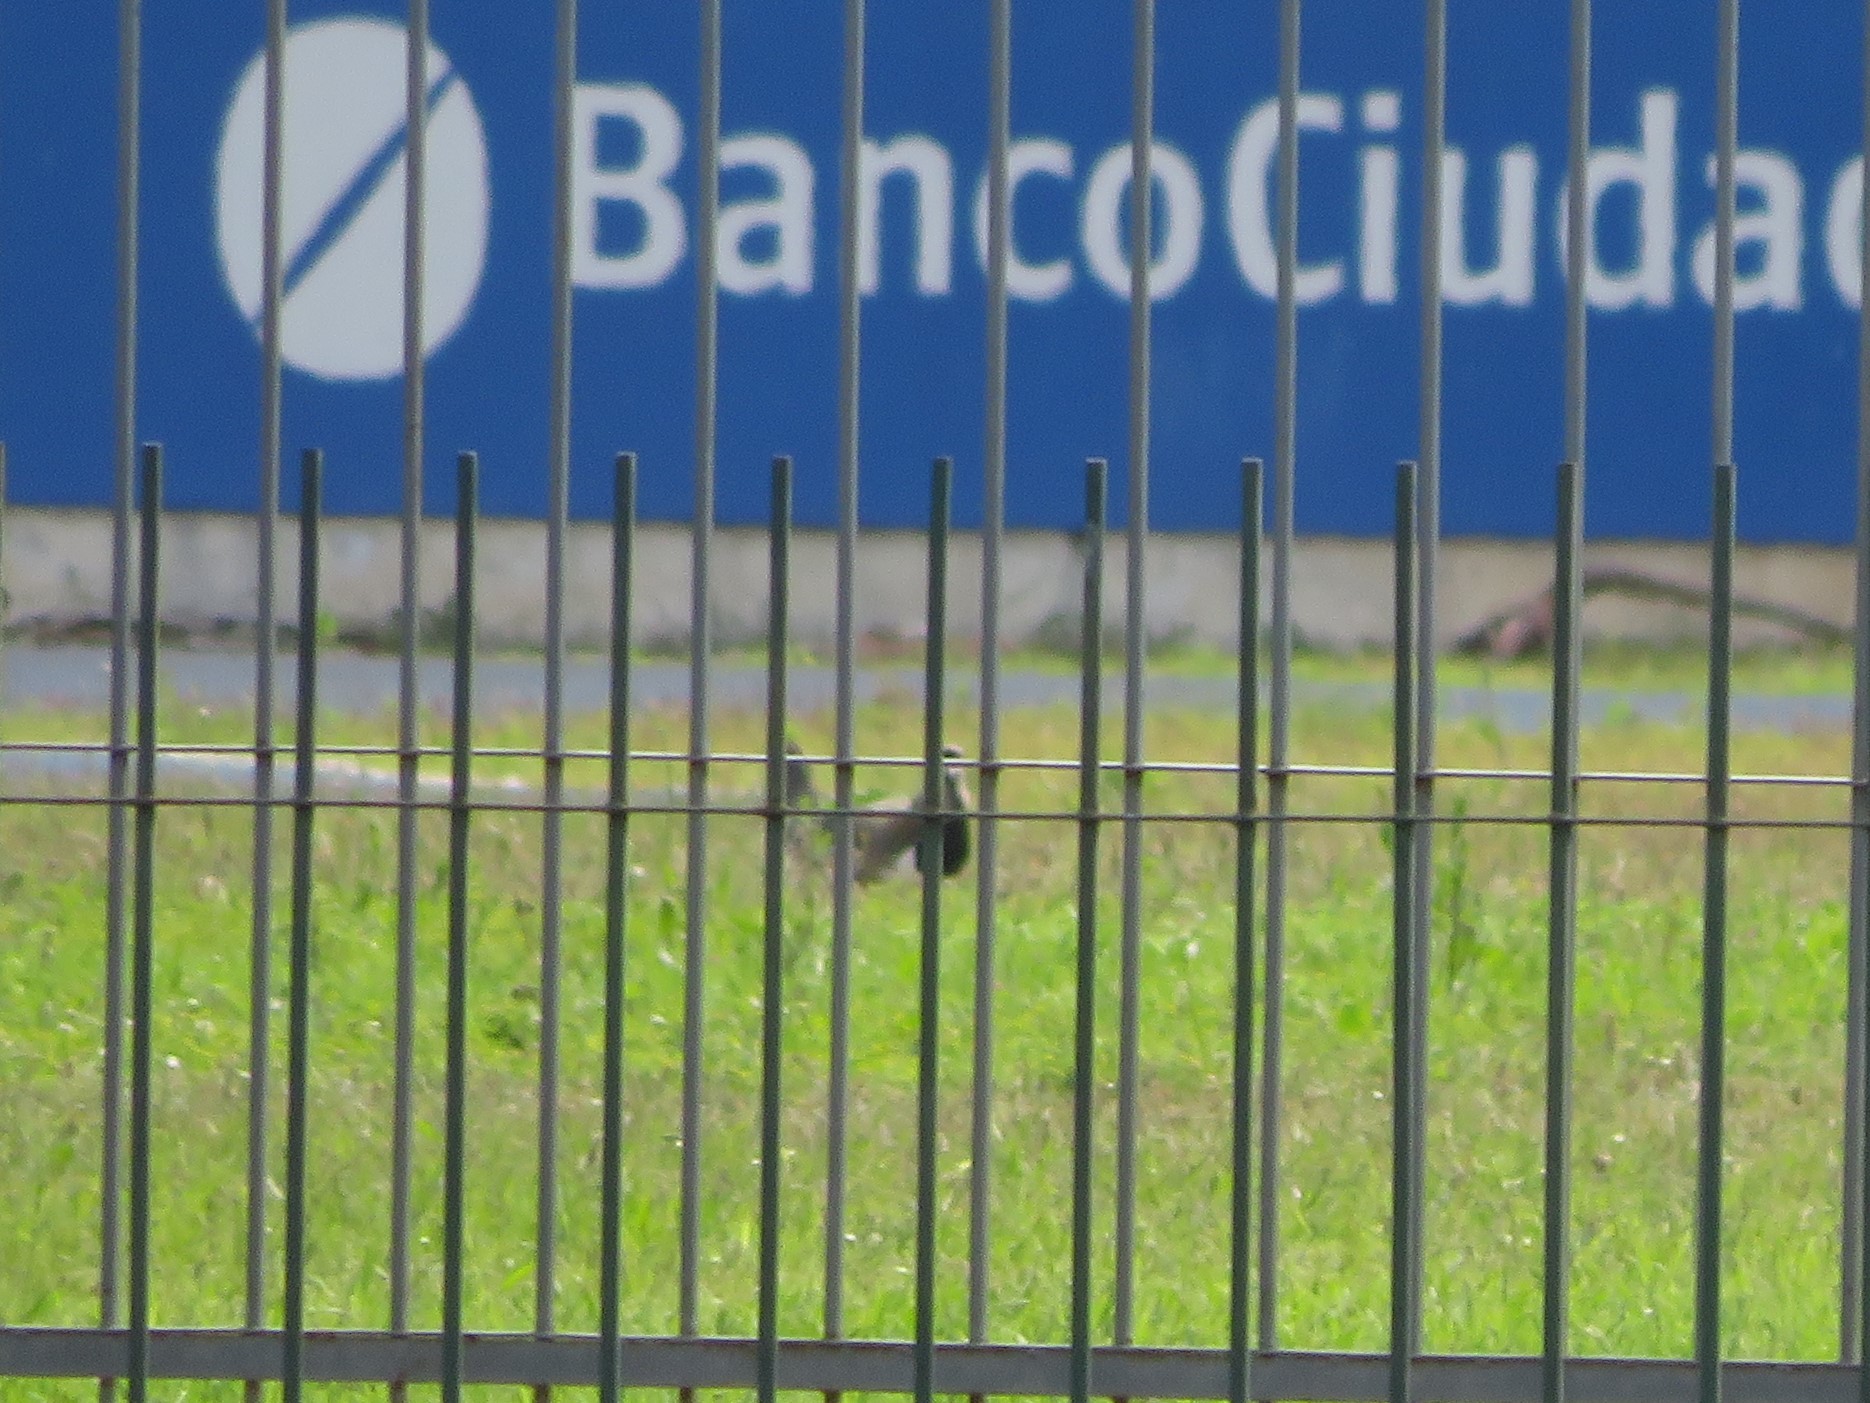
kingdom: Animalia
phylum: Chordata
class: Aves
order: Charadriiformes
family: Charadriidae
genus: Vanellus
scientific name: Vanellus chilensis
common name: Southern lapwing
